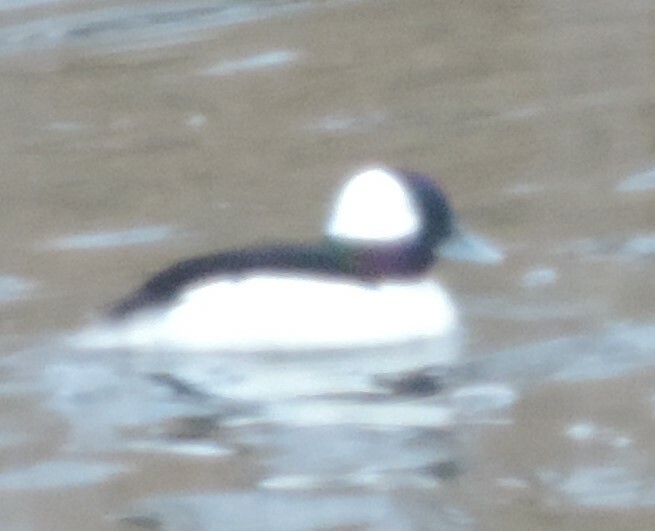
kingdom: Animalia
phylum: Chordata
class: Aves
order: Anseriformes
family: Anatidae
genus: Bucephala
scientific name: Bucephala albeola
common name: Bufflehead
